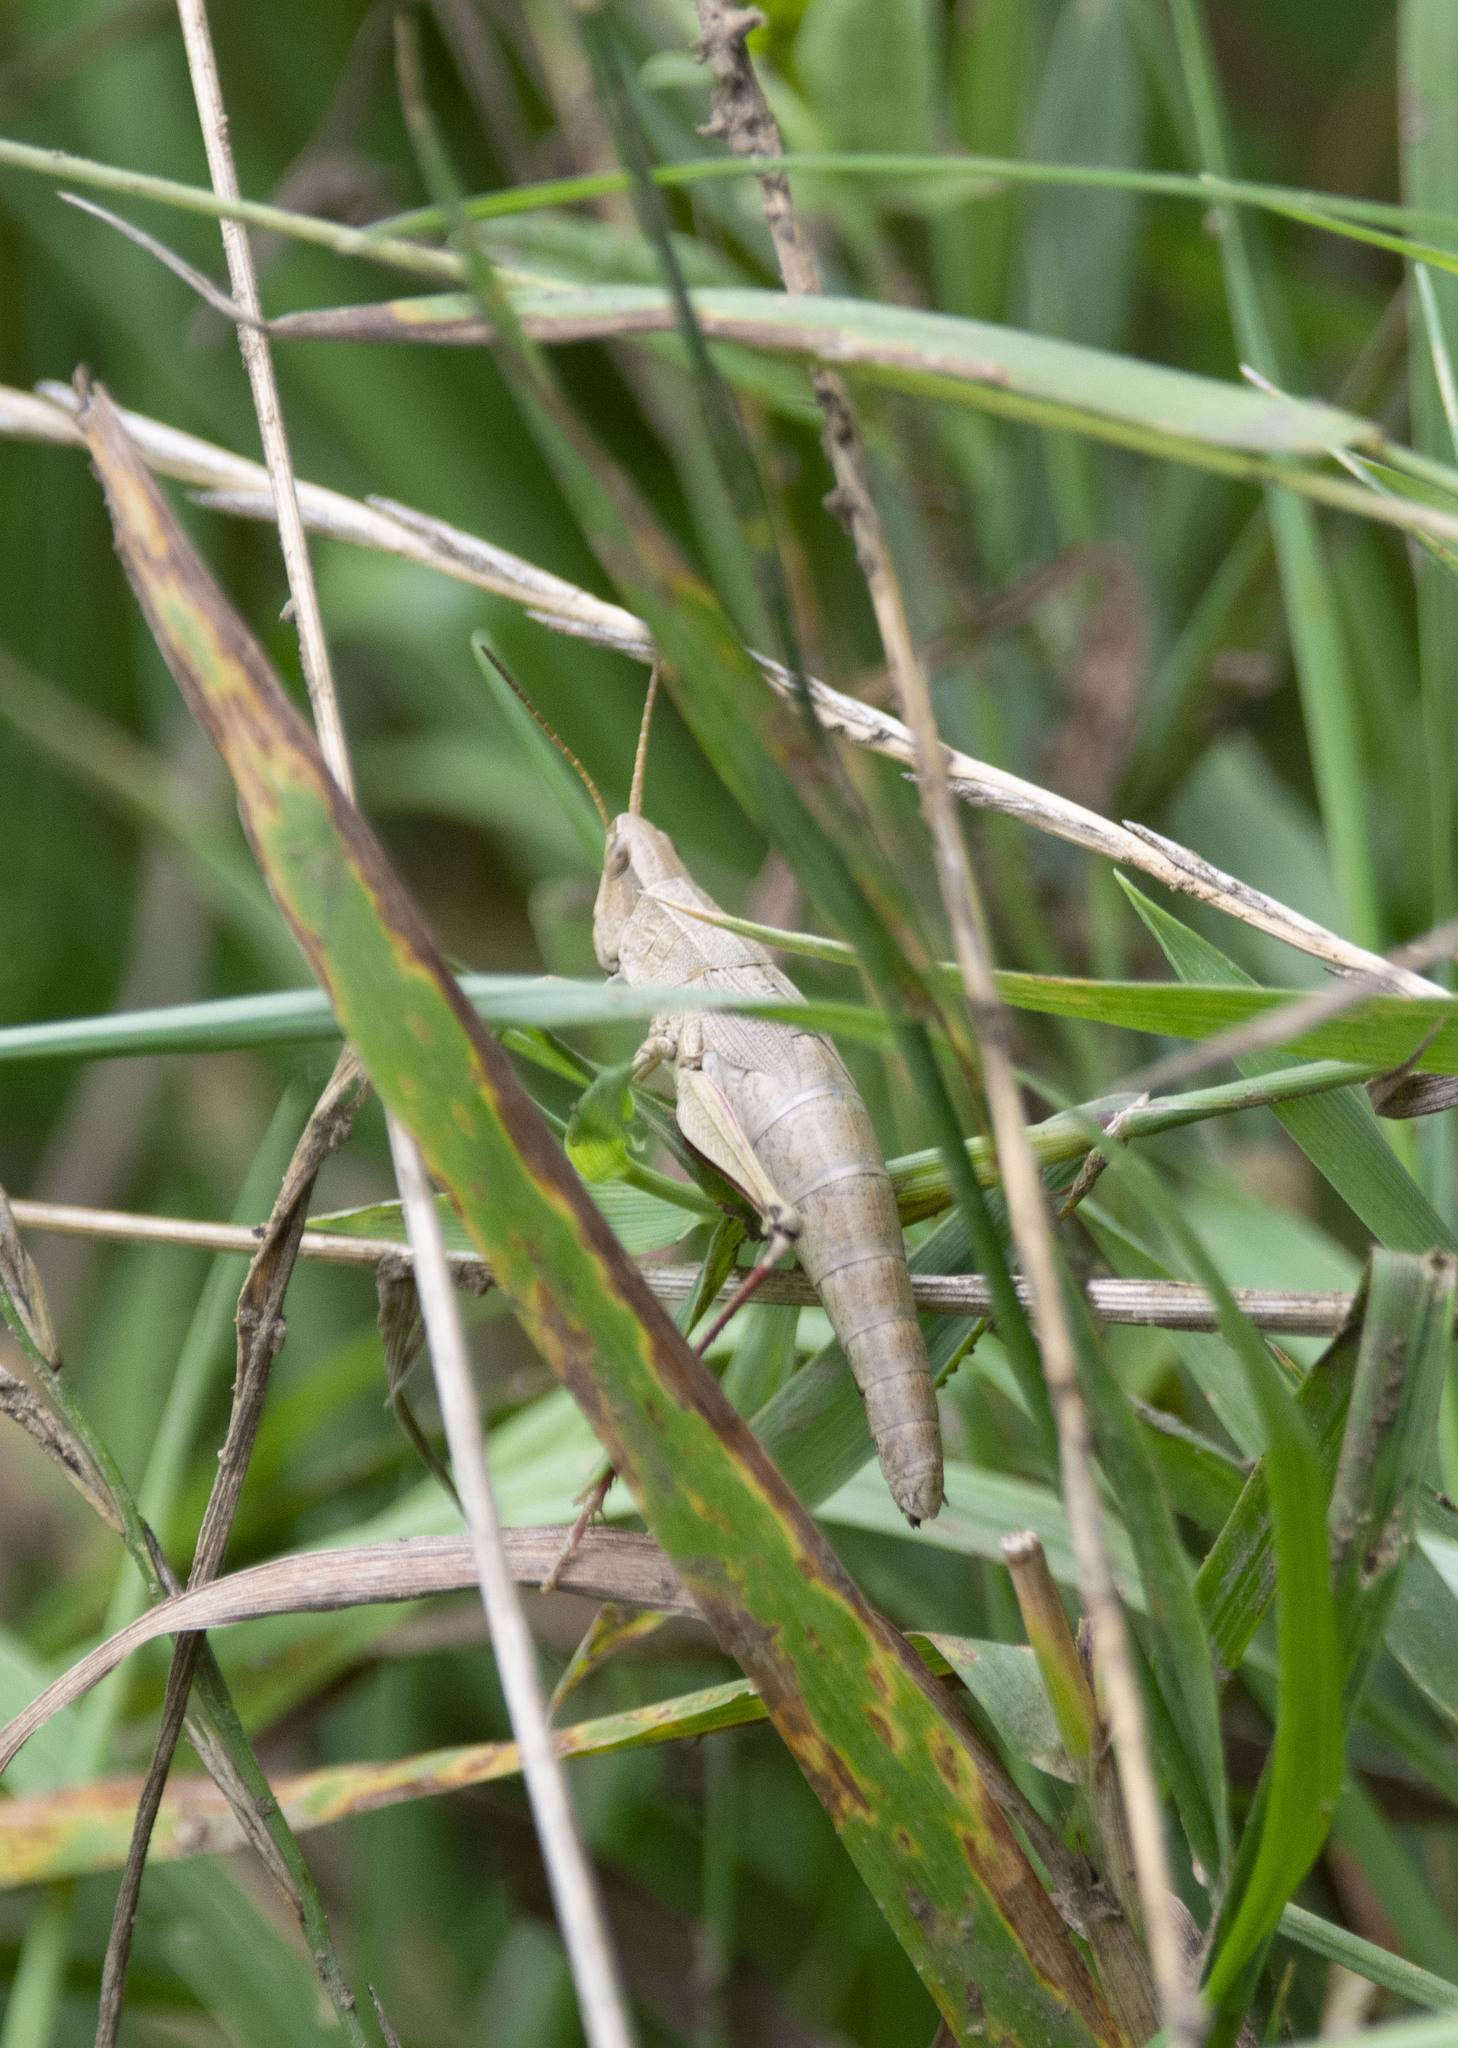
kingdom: Animalia
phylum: Arthropoda
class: Insecta
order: Orthoptera
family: Acrididae
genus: Chrysochraon
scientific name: Chrysochraon dispar
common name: Large gold grasshopper
